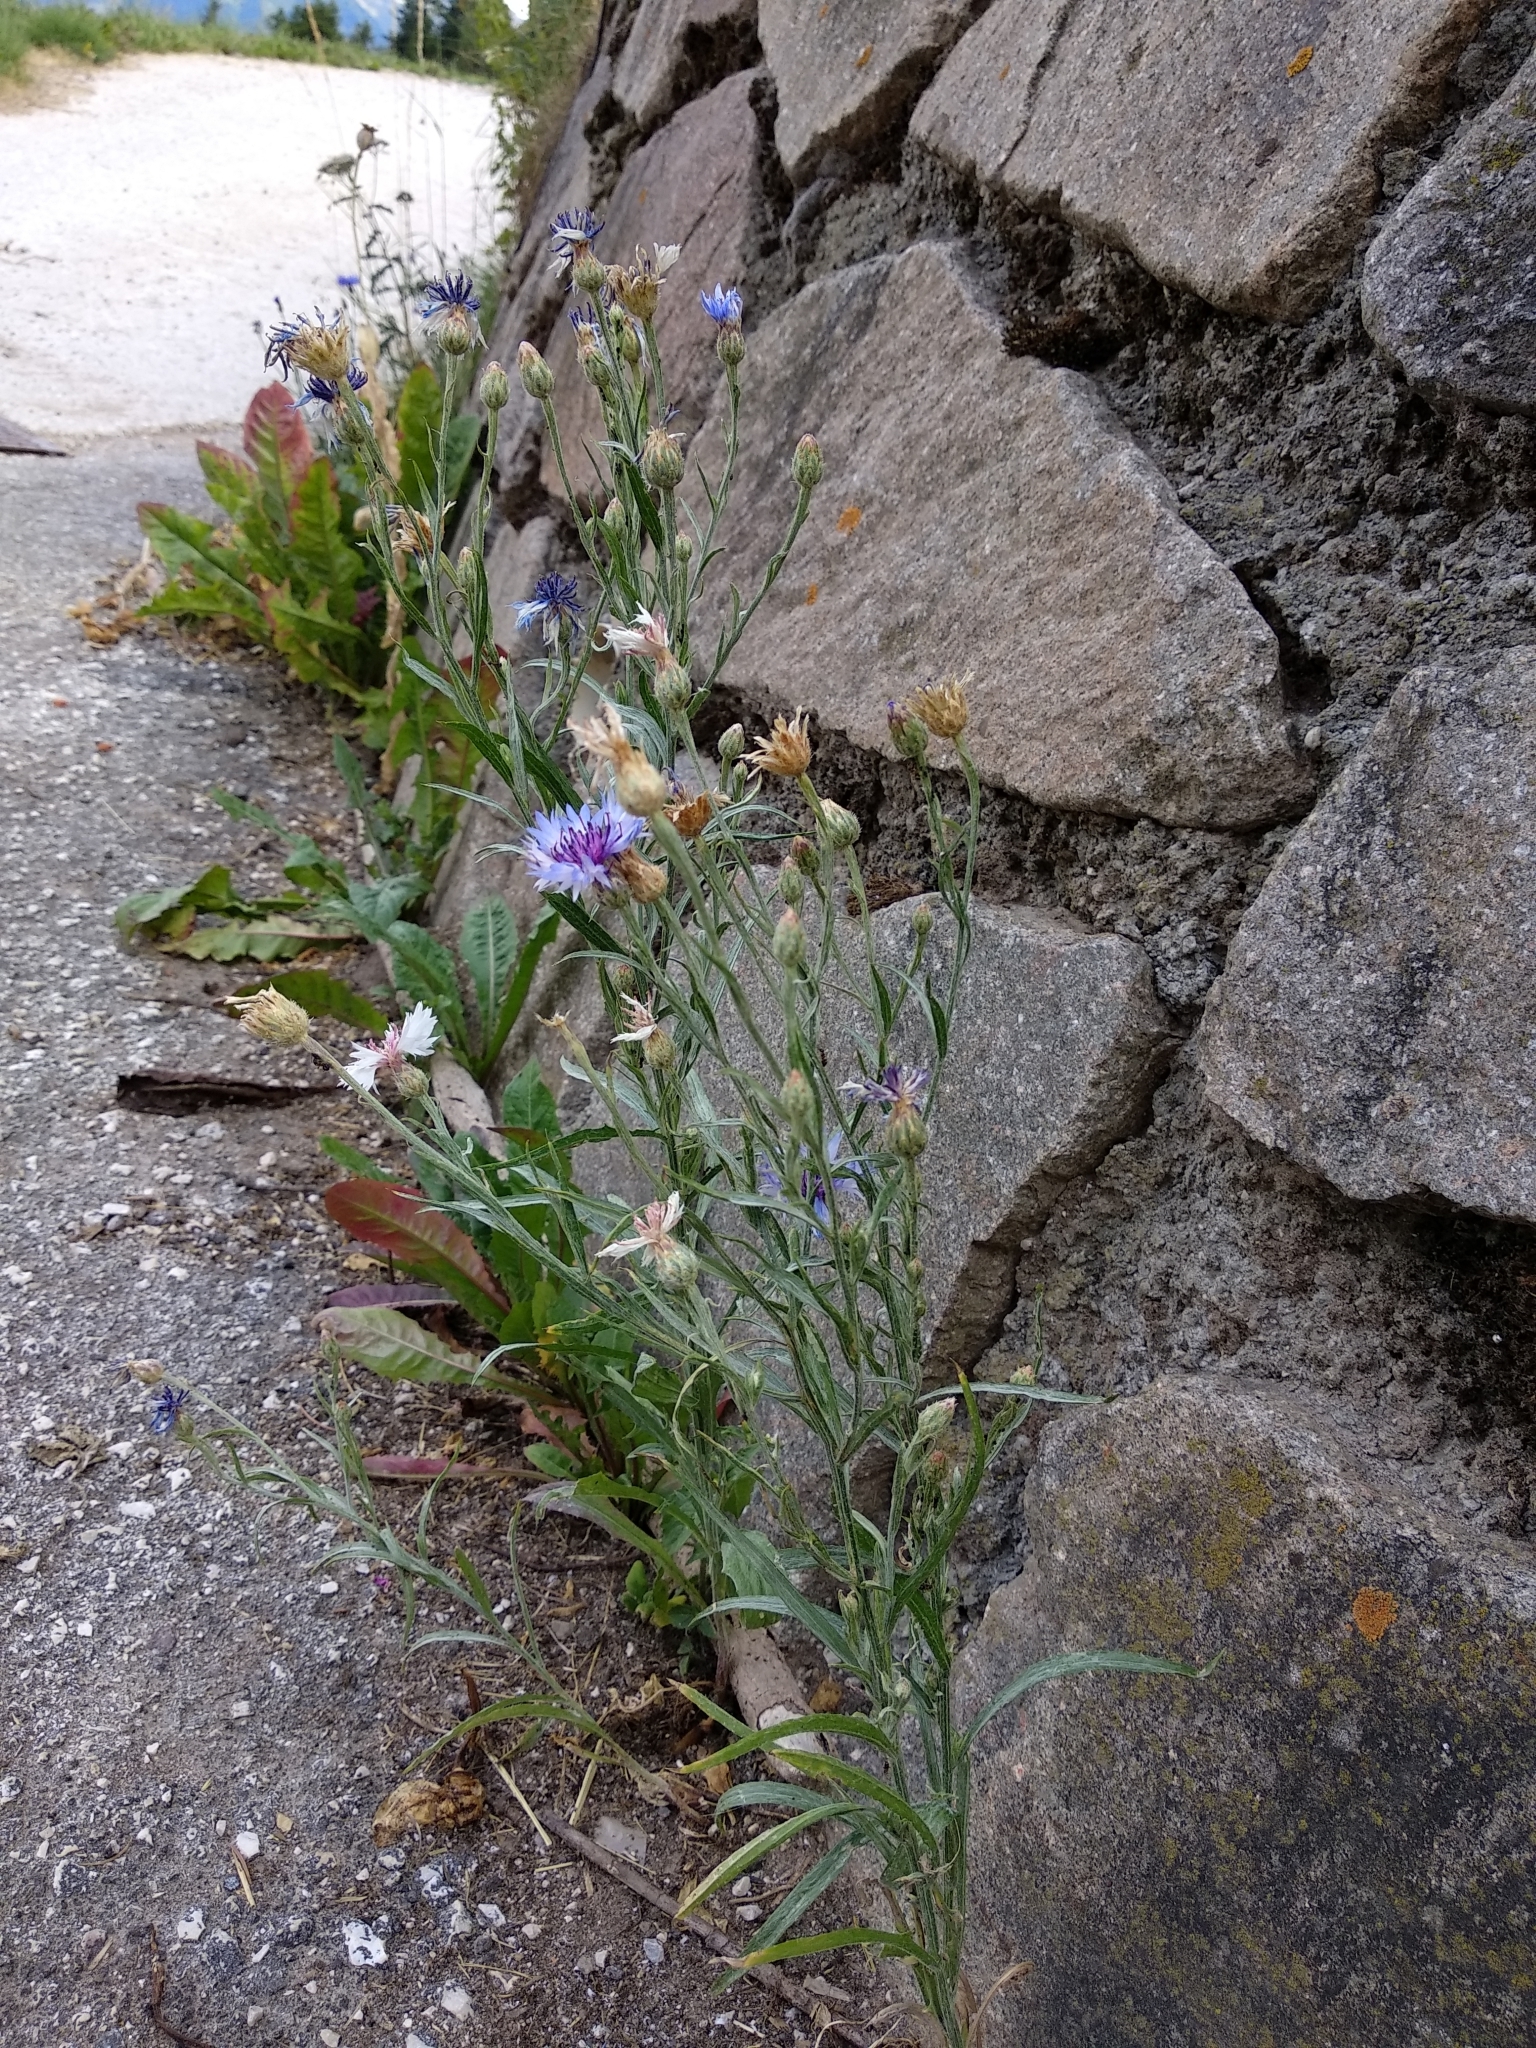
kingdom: Plantae
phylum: Tracheophyta
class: Magnoliopsida
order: Asterales
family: Asteraceae
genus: Centaurea
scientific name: Centaurea cyanus
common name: Cornflower
